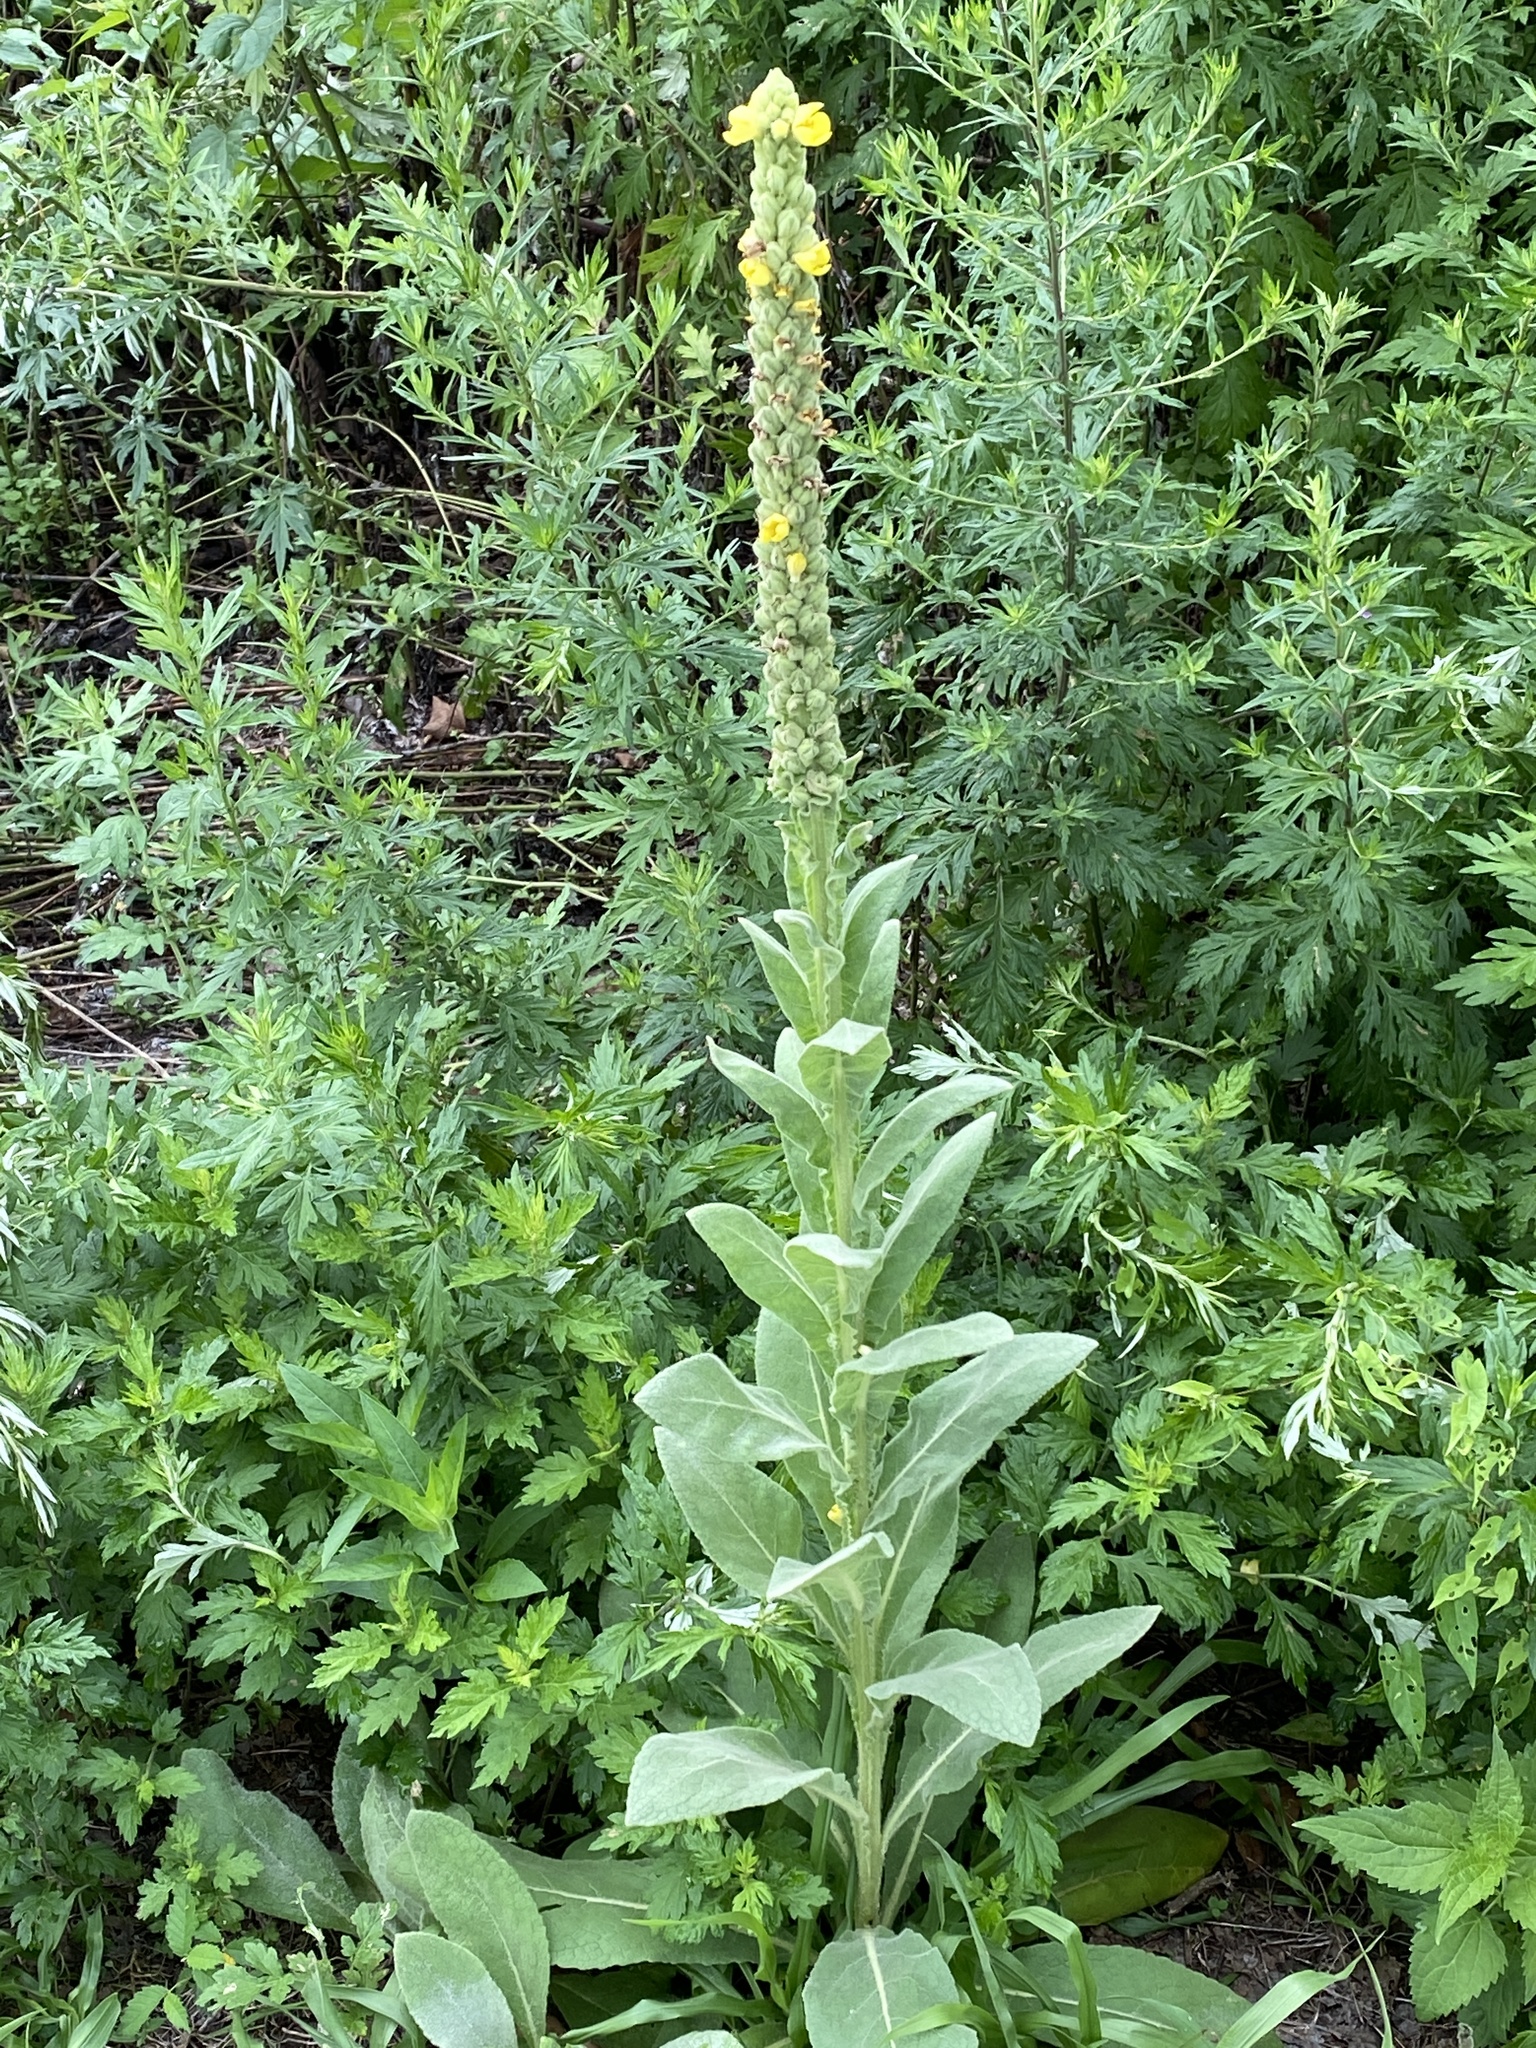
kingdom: Plantae
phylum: Tracheophyta
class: Magnoliopsida
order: Lamiales
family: Scrophulariaceae
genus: Verbascum
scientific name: Verbascum thapsus
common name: Common mullein
